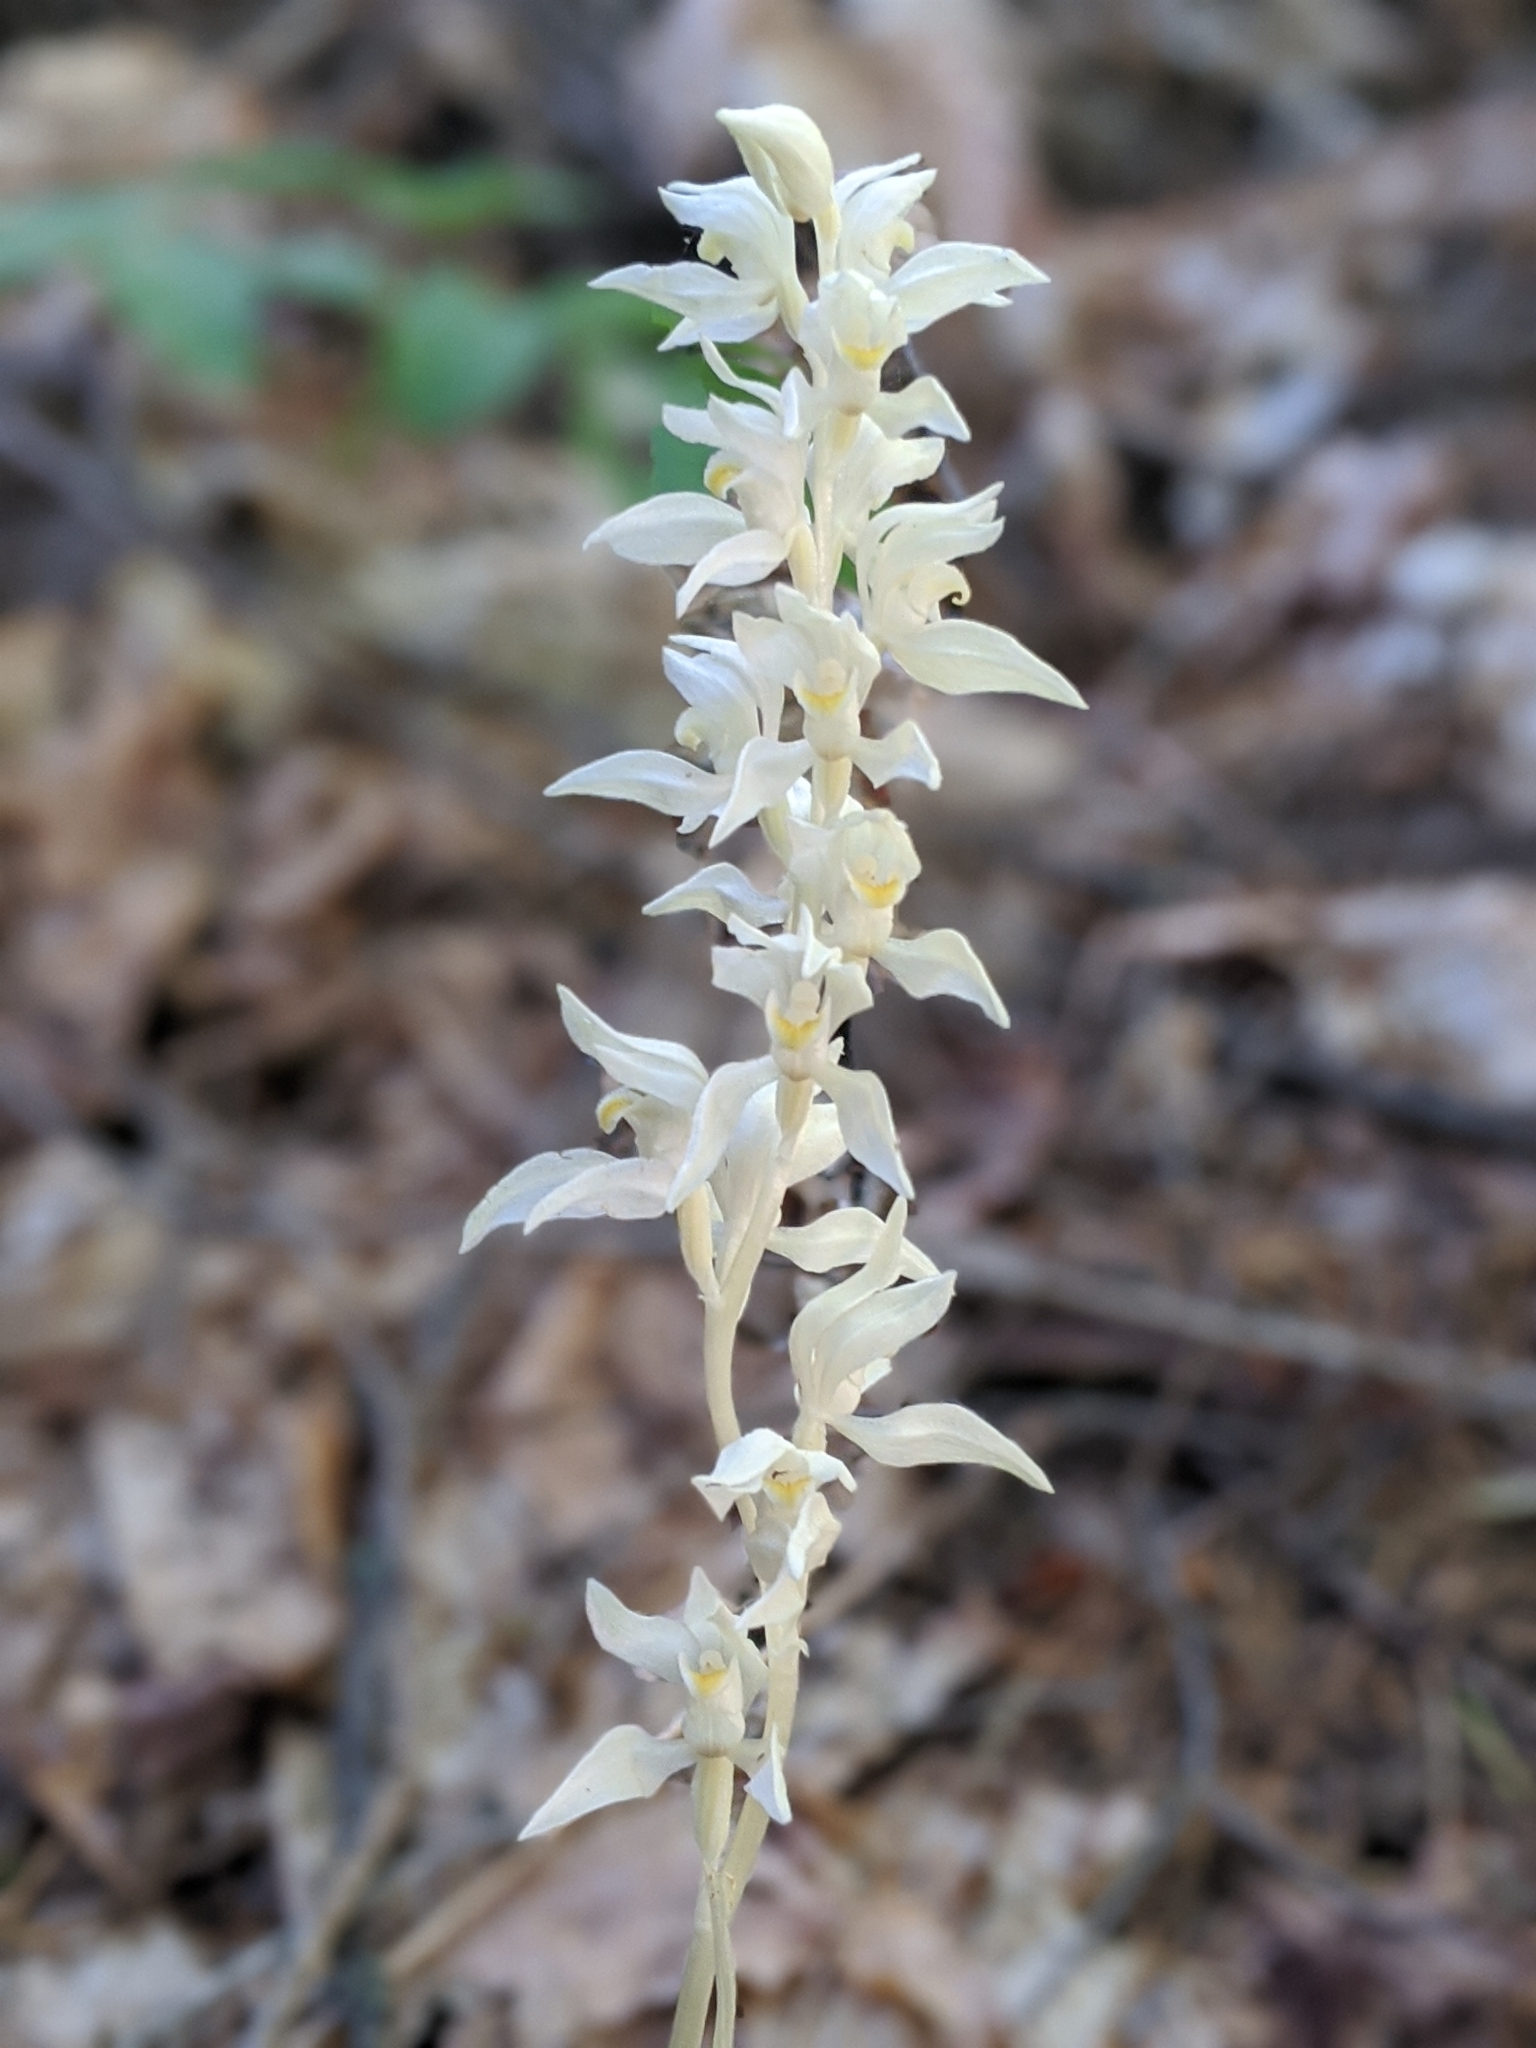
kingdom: Plantae
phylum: Tracheophyta
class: Liliopsida
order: Asparagales
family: Orchidaceae
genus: Cephalanthera
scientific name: Cephalanthera austiniae
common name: Phantom orchid
